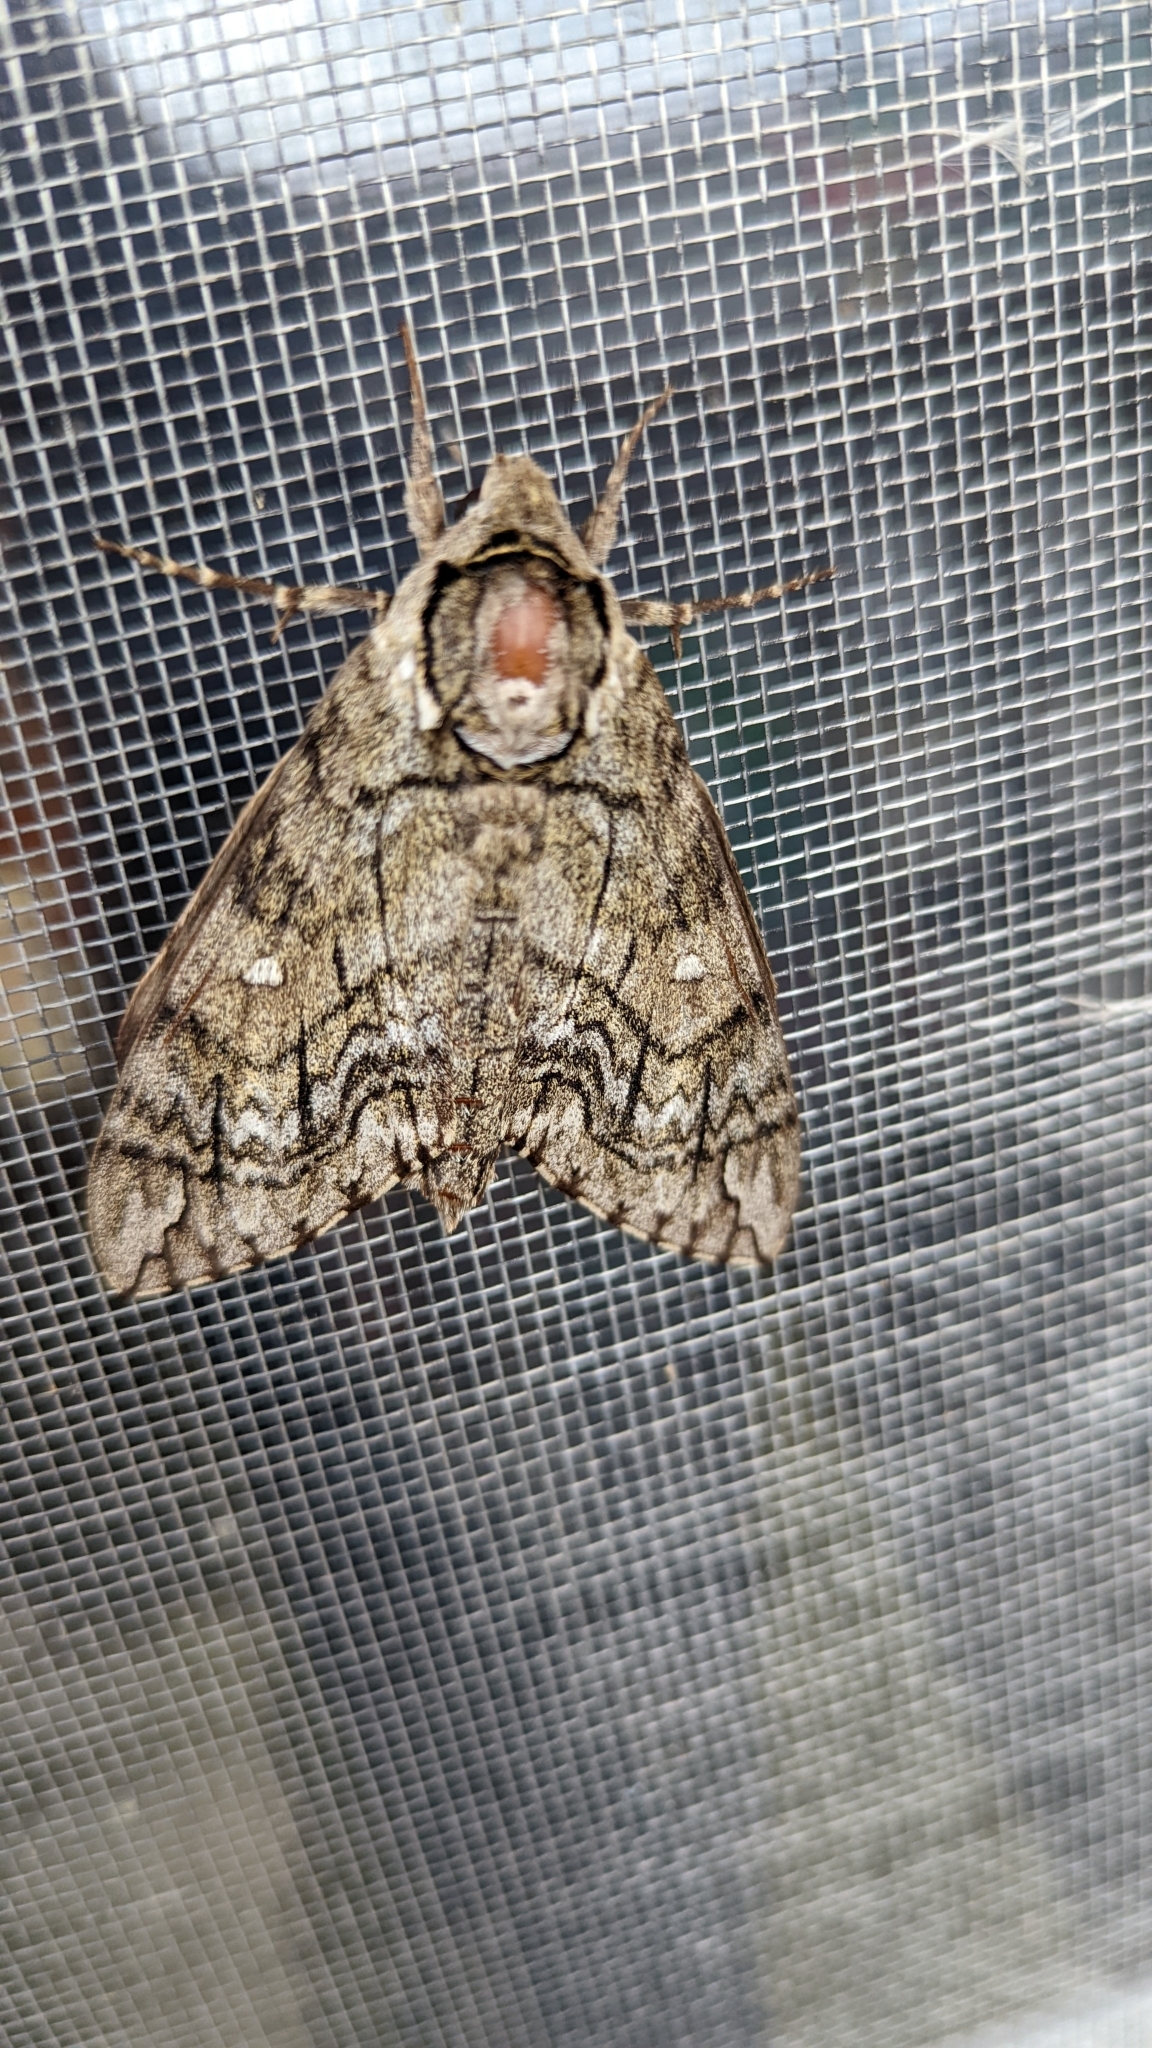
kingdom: Animalia
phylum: Arthropoda
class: Insecta
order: Lepidoptera
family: Sphingidae
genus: Ceratomia
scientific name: Ceratomia undulosa
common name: Waved sphinx
